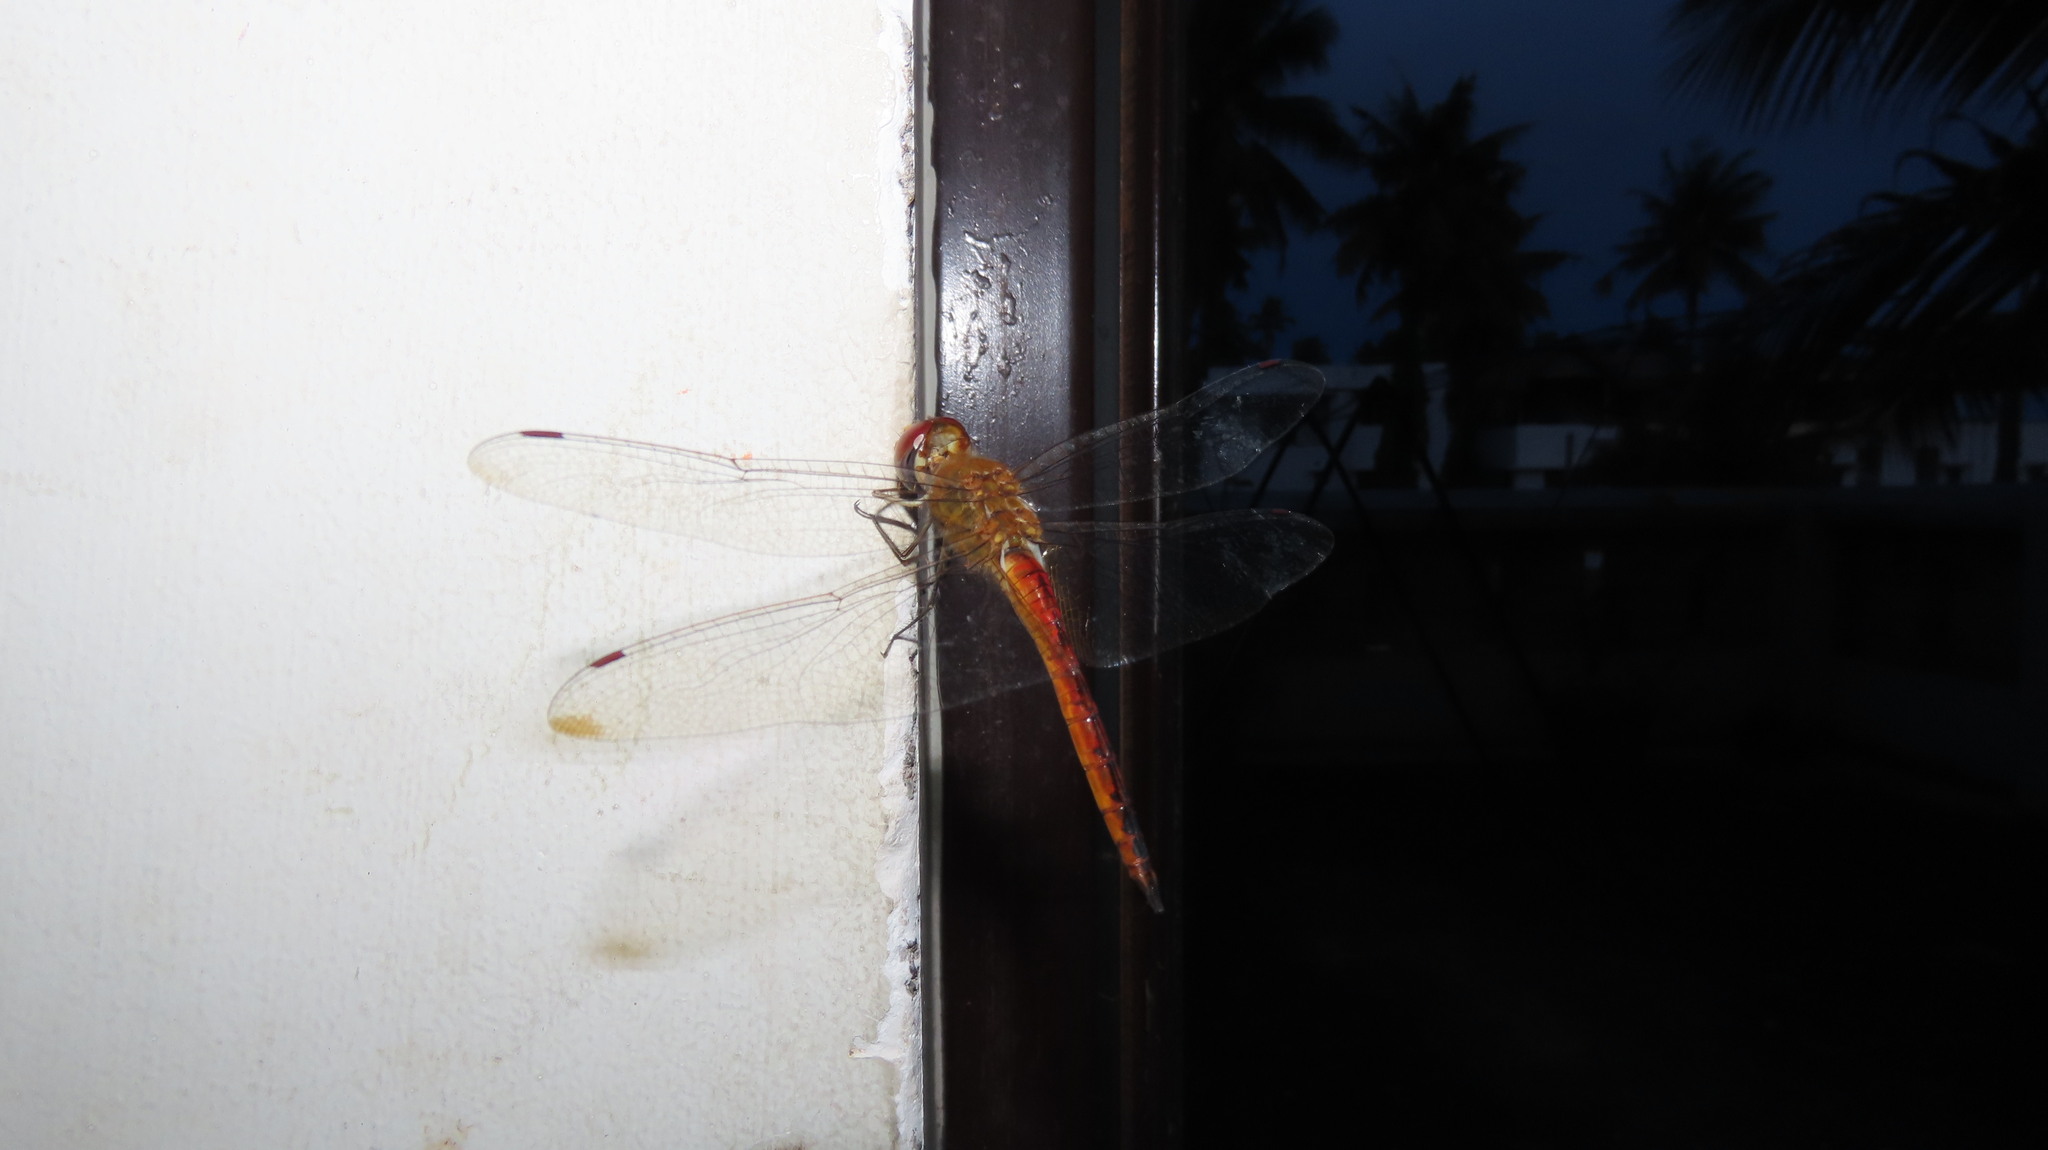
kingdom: Animalia
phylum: Arthropoda
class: Insecta
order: Odonata
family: Libellulidae
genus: Pantala
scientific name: Pantala flavescens
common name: Wandering glider
